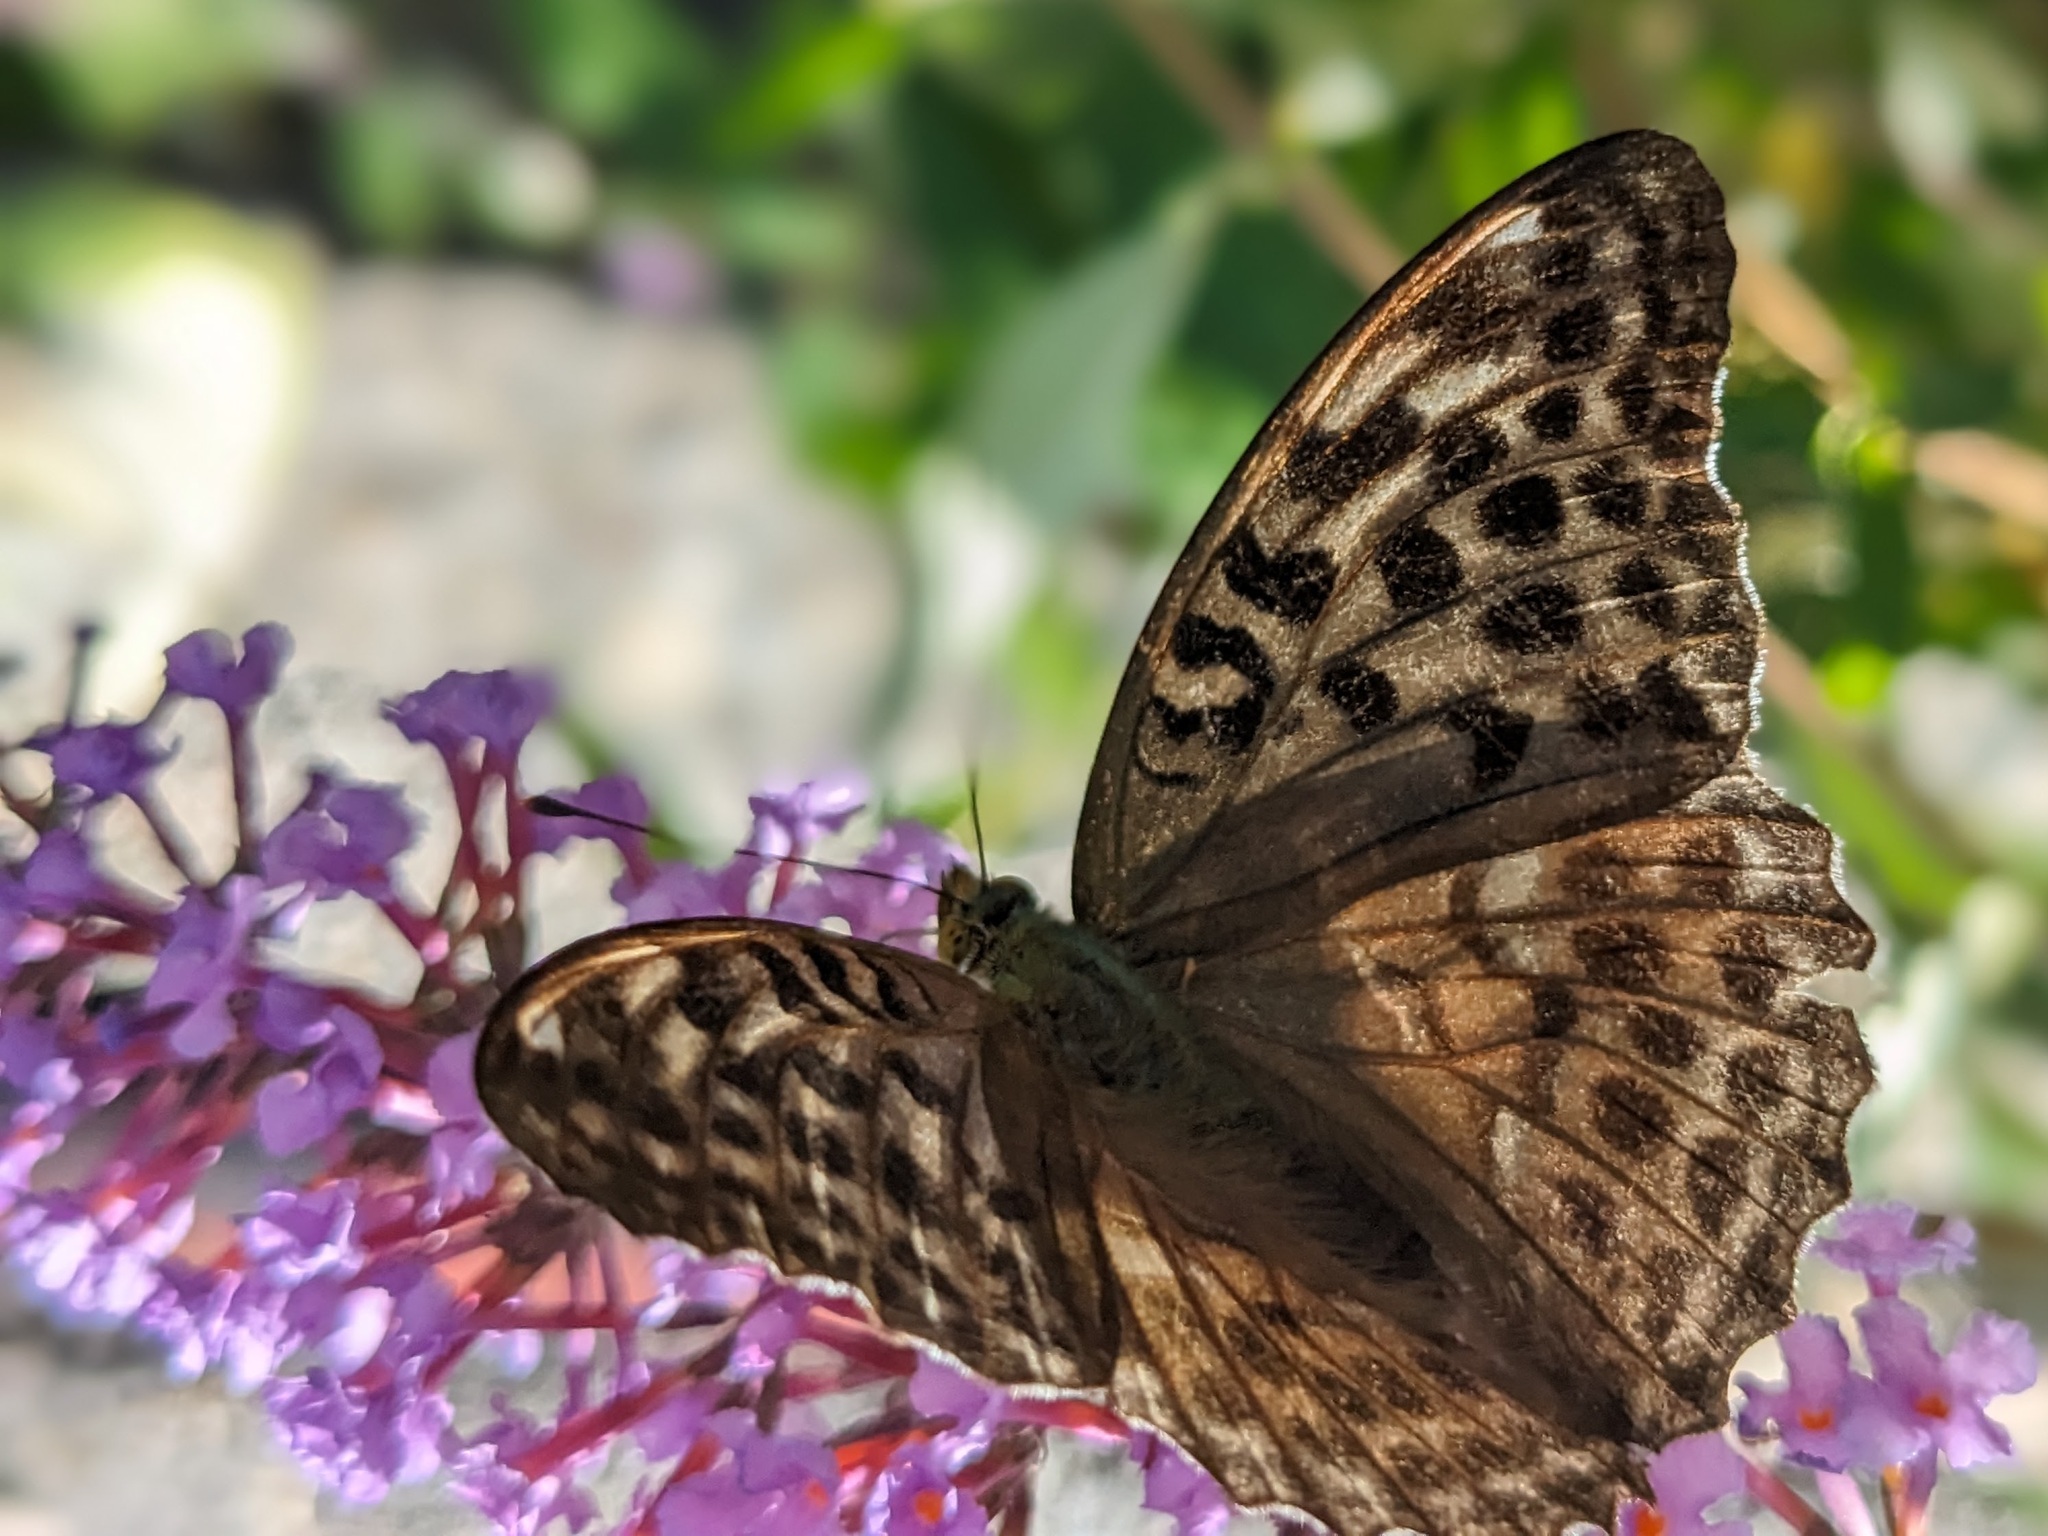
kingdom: Animalia
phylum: Arthropoda
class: Insecta
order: Lepidoptera
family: Nymphalidae
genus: Argynnis
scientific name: Argynnis paphia
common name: Silver-washed fritillary
